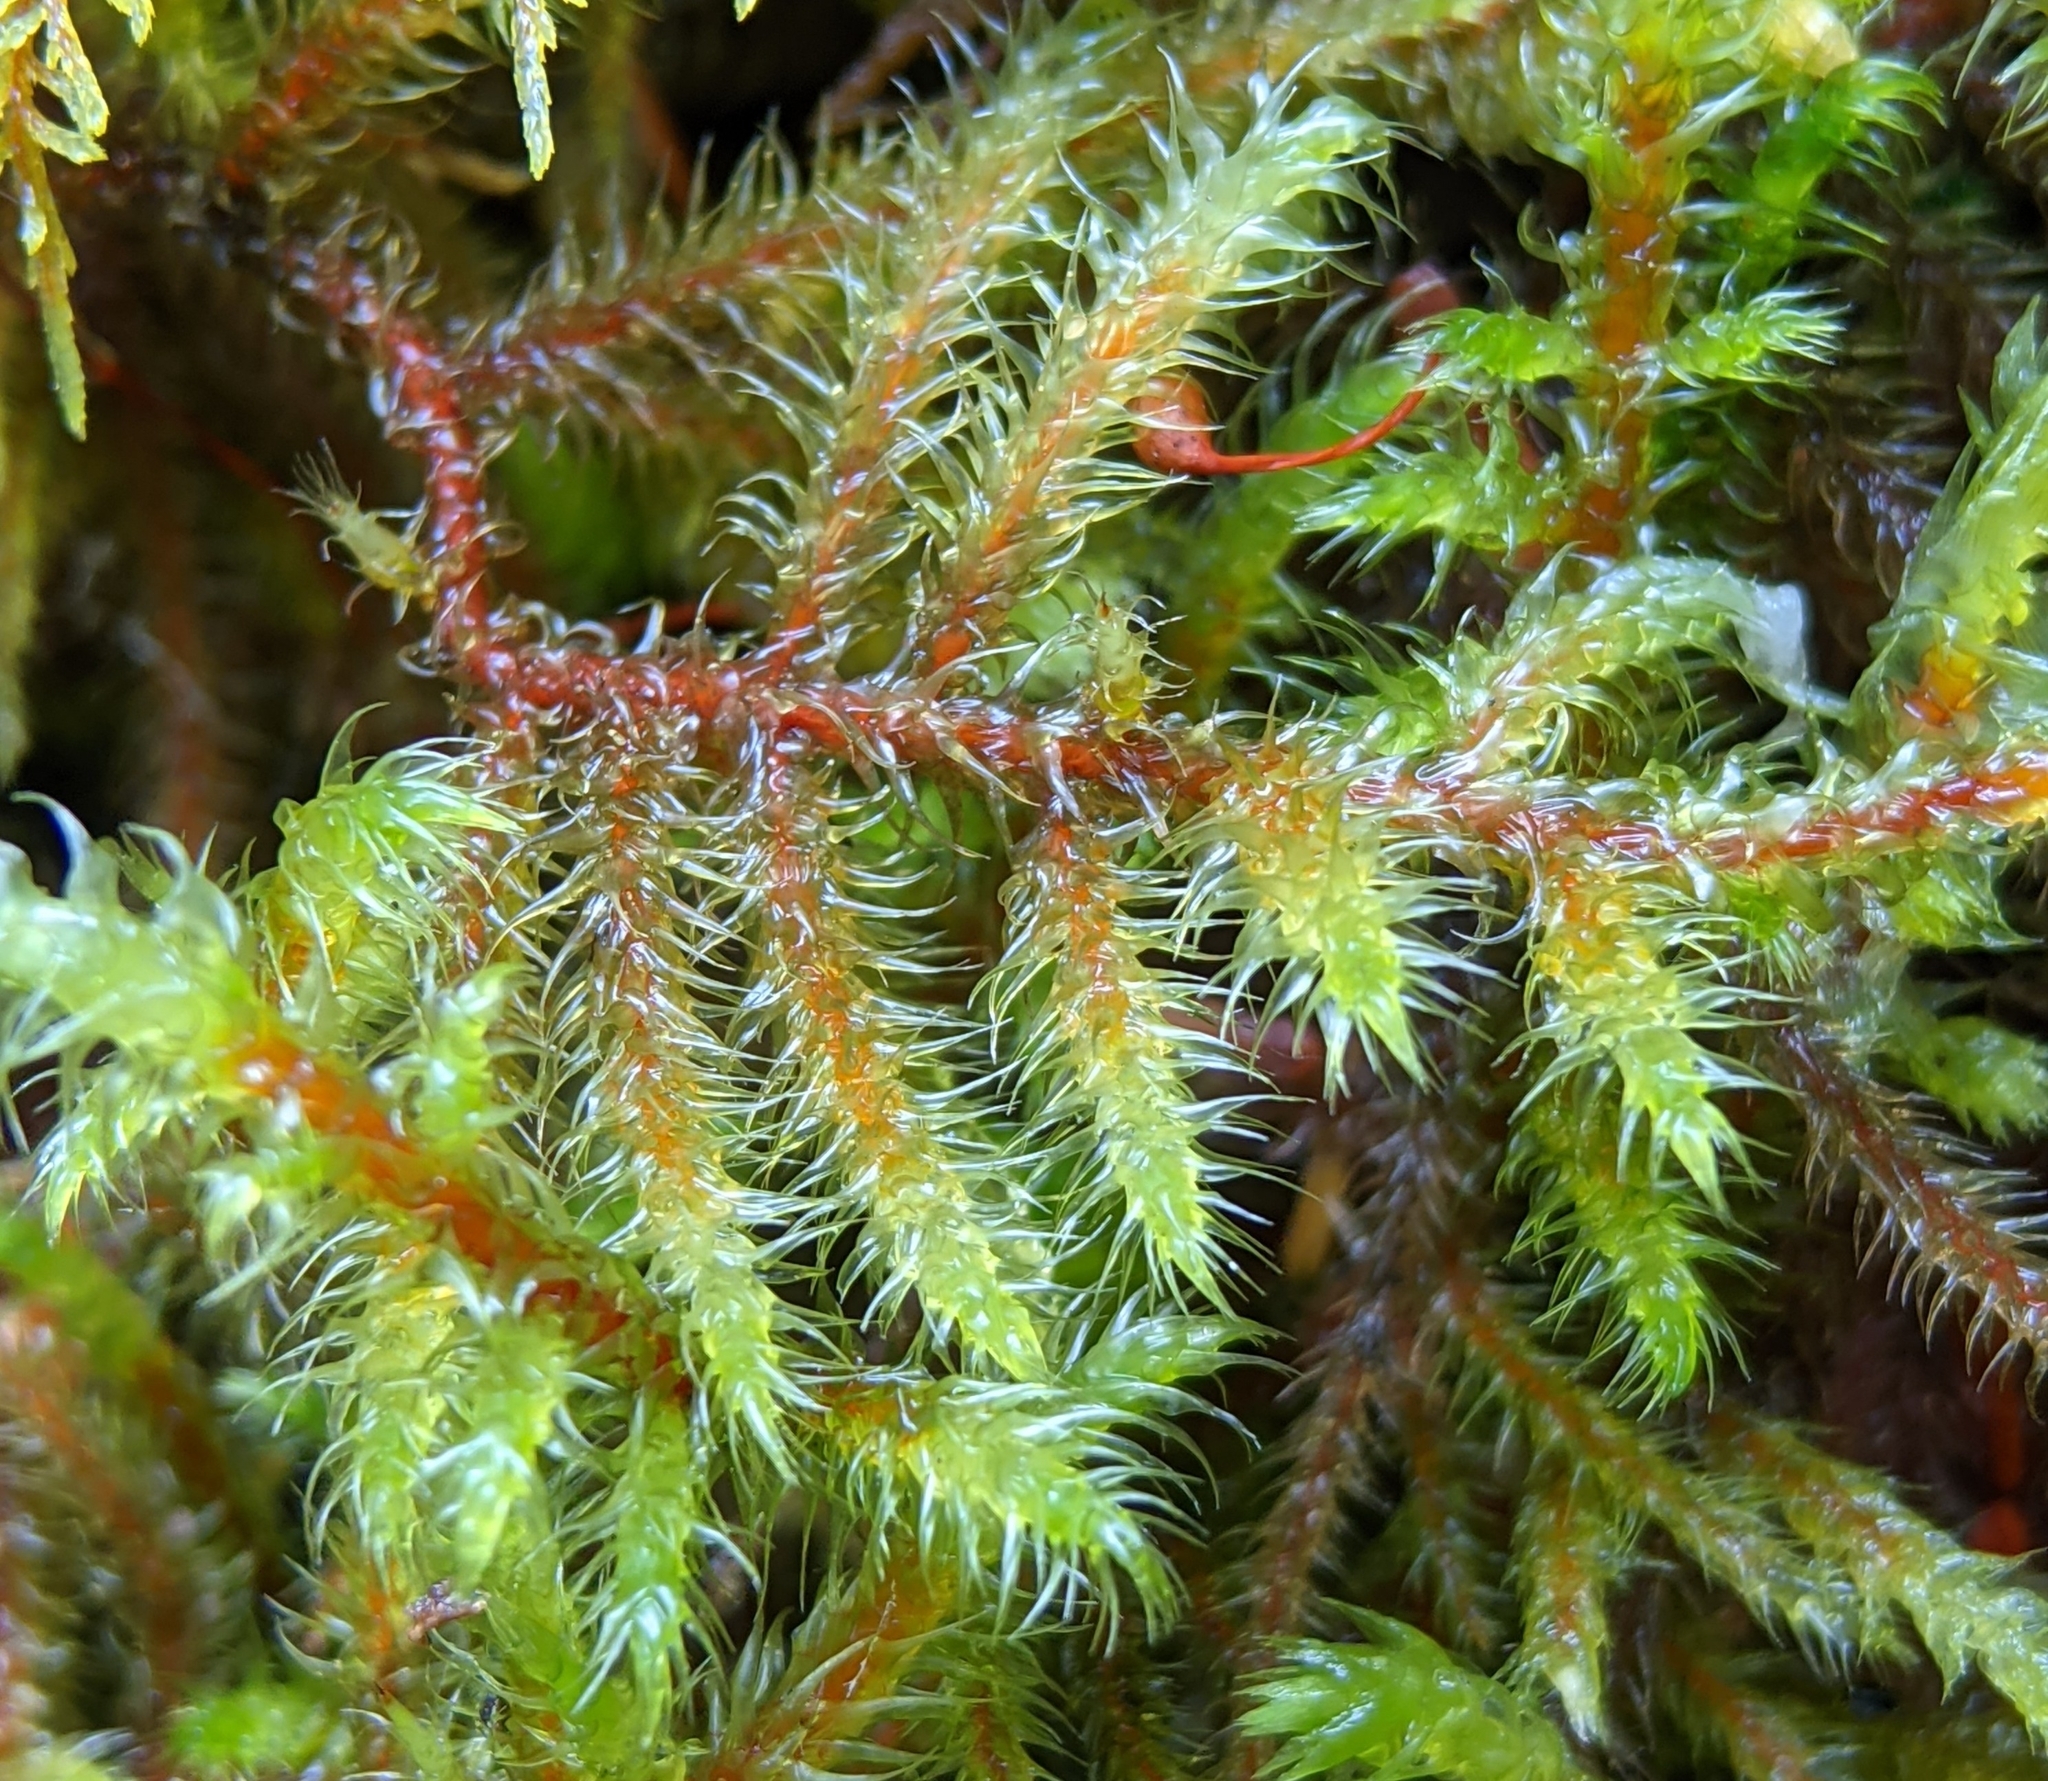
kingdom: Plantae
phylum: Bryophyta
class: Bryopsida
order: Hypnales
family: Hylocomiaceae
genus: Rhytidiadelphus
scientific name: Rhytidiadelphus loreus
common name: Lanky moss
